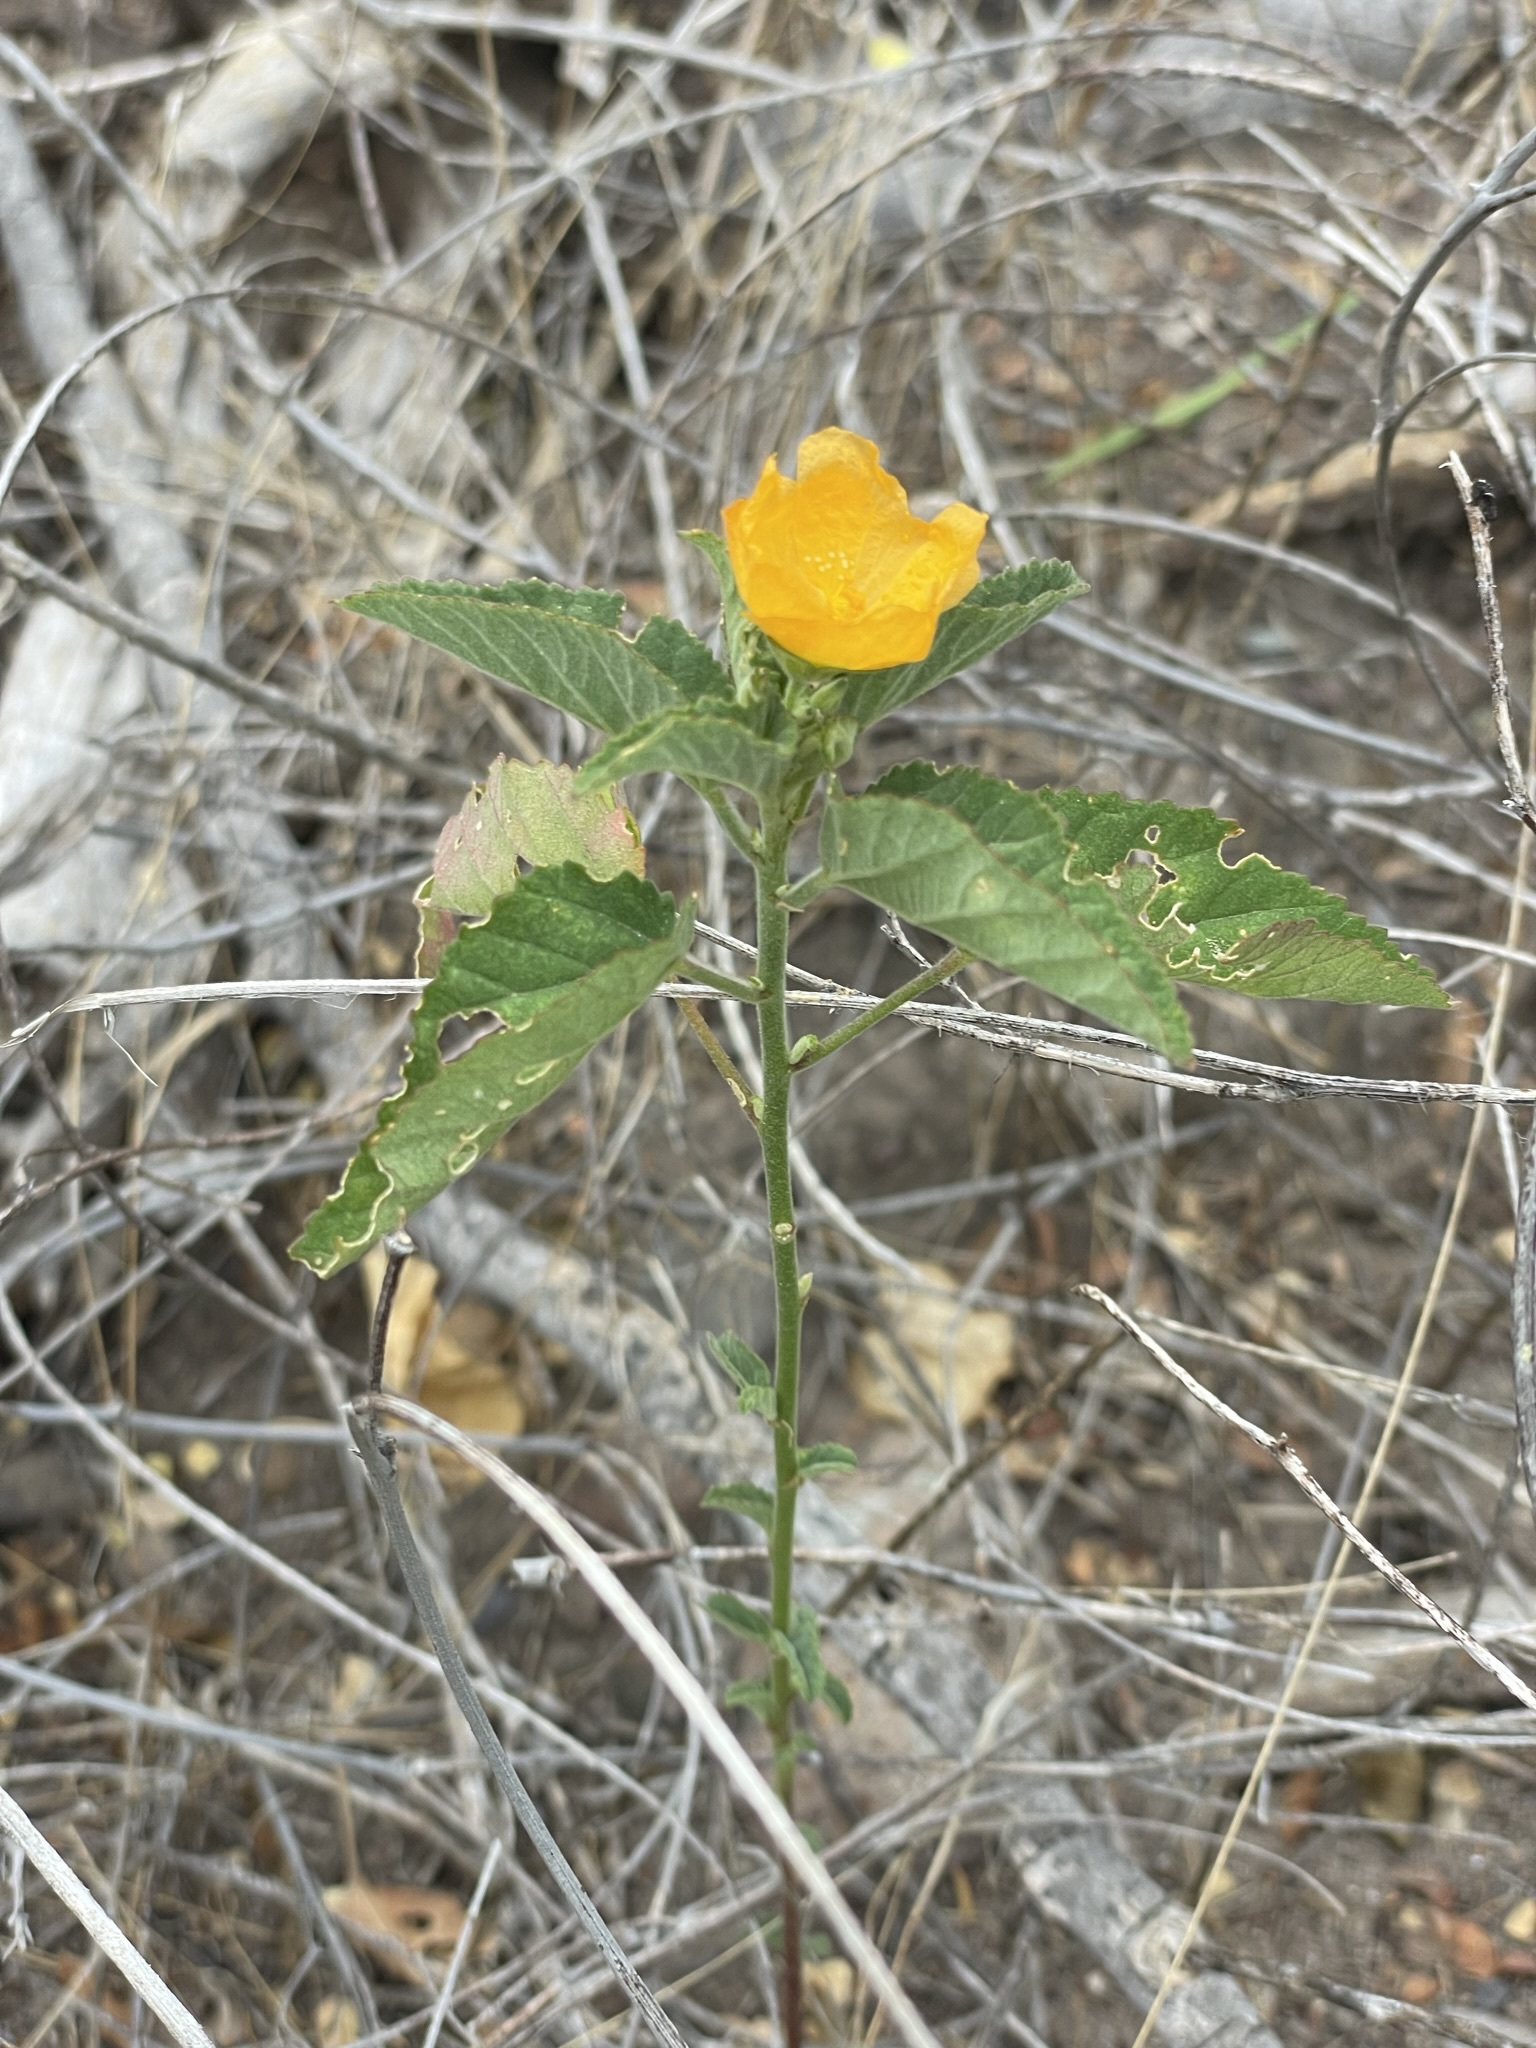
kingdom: Plantae
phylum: Tracheophyta
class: Magnoliopsida
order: Malvales
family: Malvaceae
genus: Sphaeralcea
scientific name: Sphaeralcea coulteri
